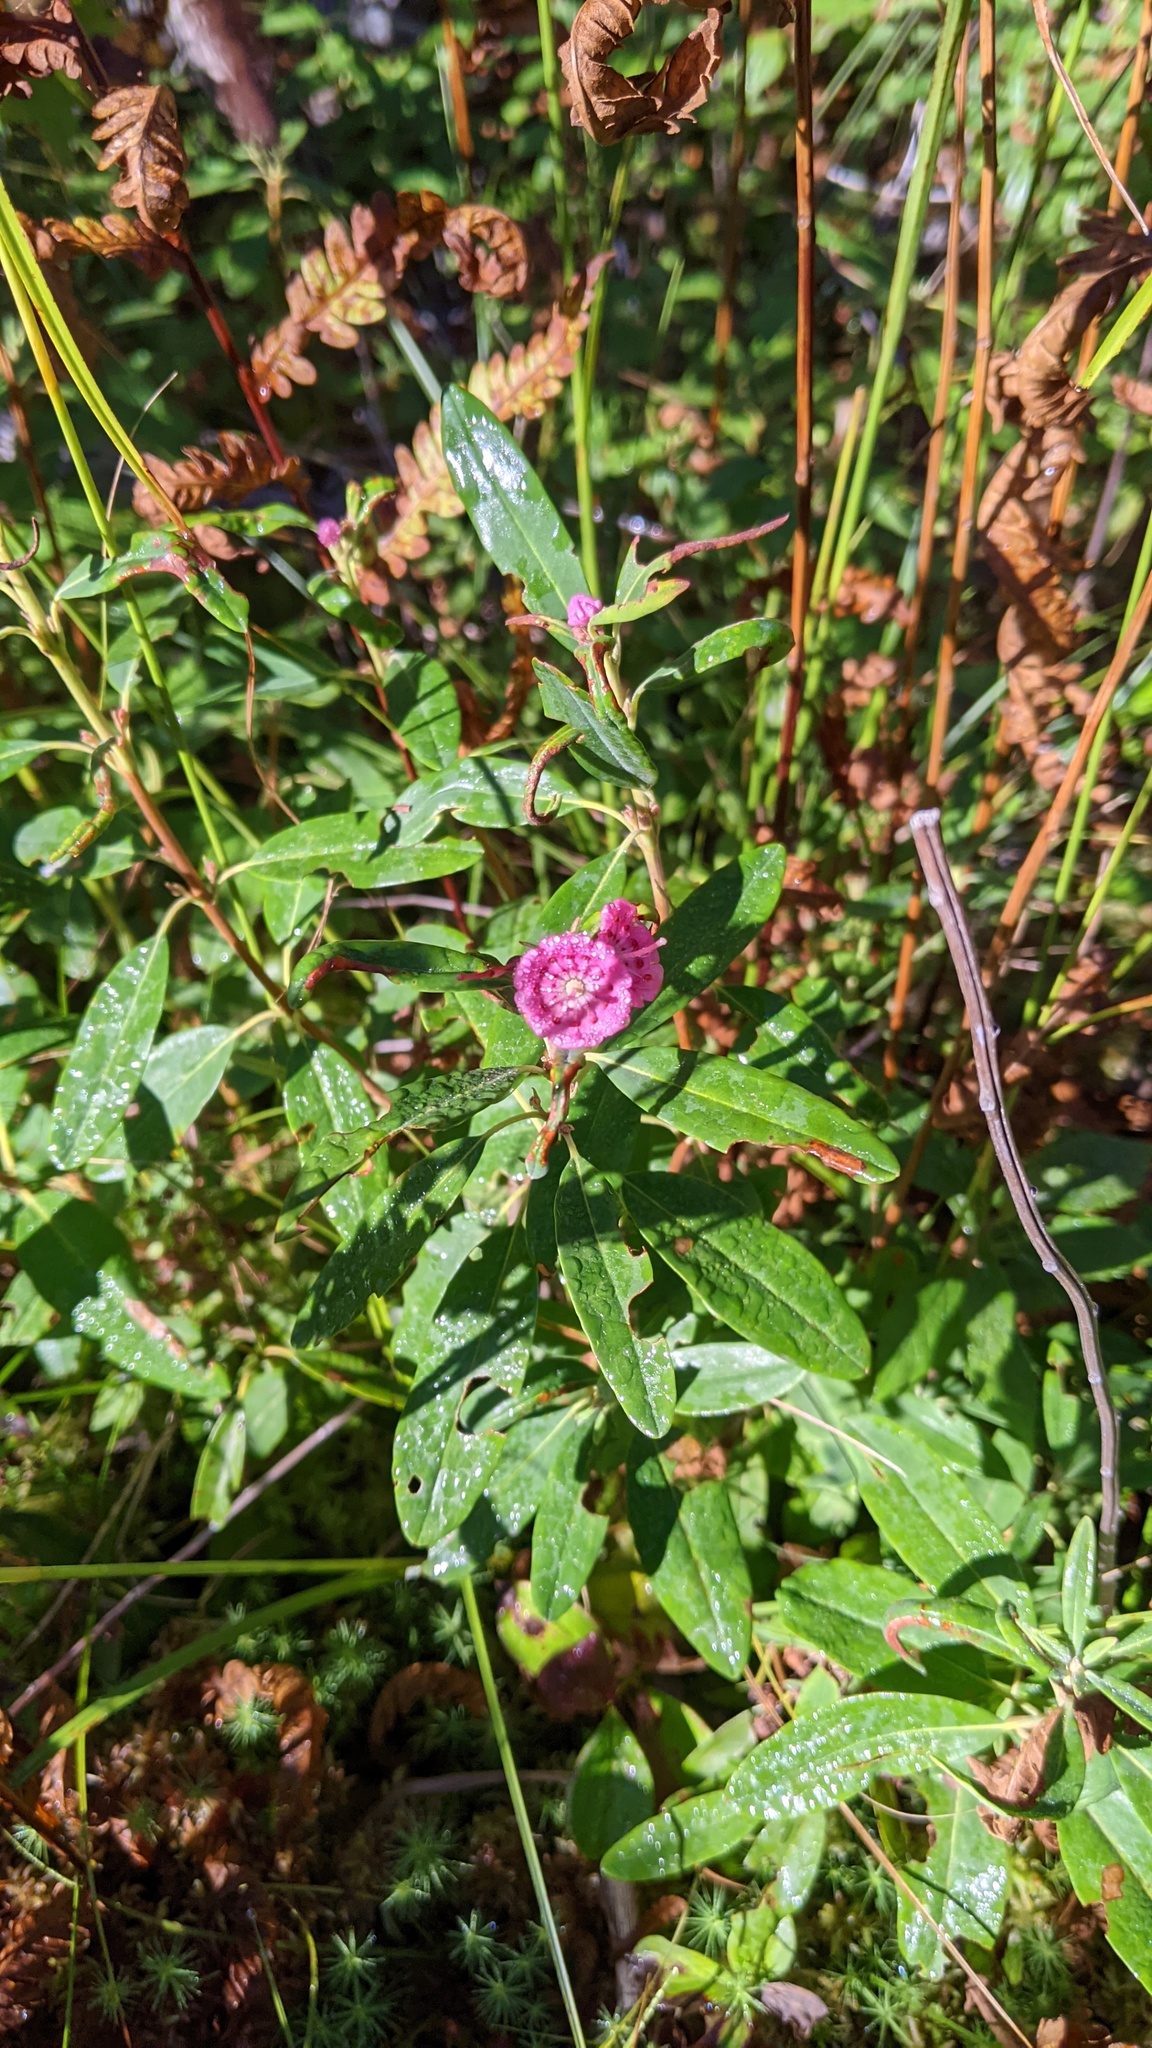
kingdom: Plantae
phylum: Tracheophyta
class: Magnoliopsida
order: Ericales
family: Ericaceae
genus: Kalmia
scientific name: Kalmia angustifolia
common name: Sheep-laurel
